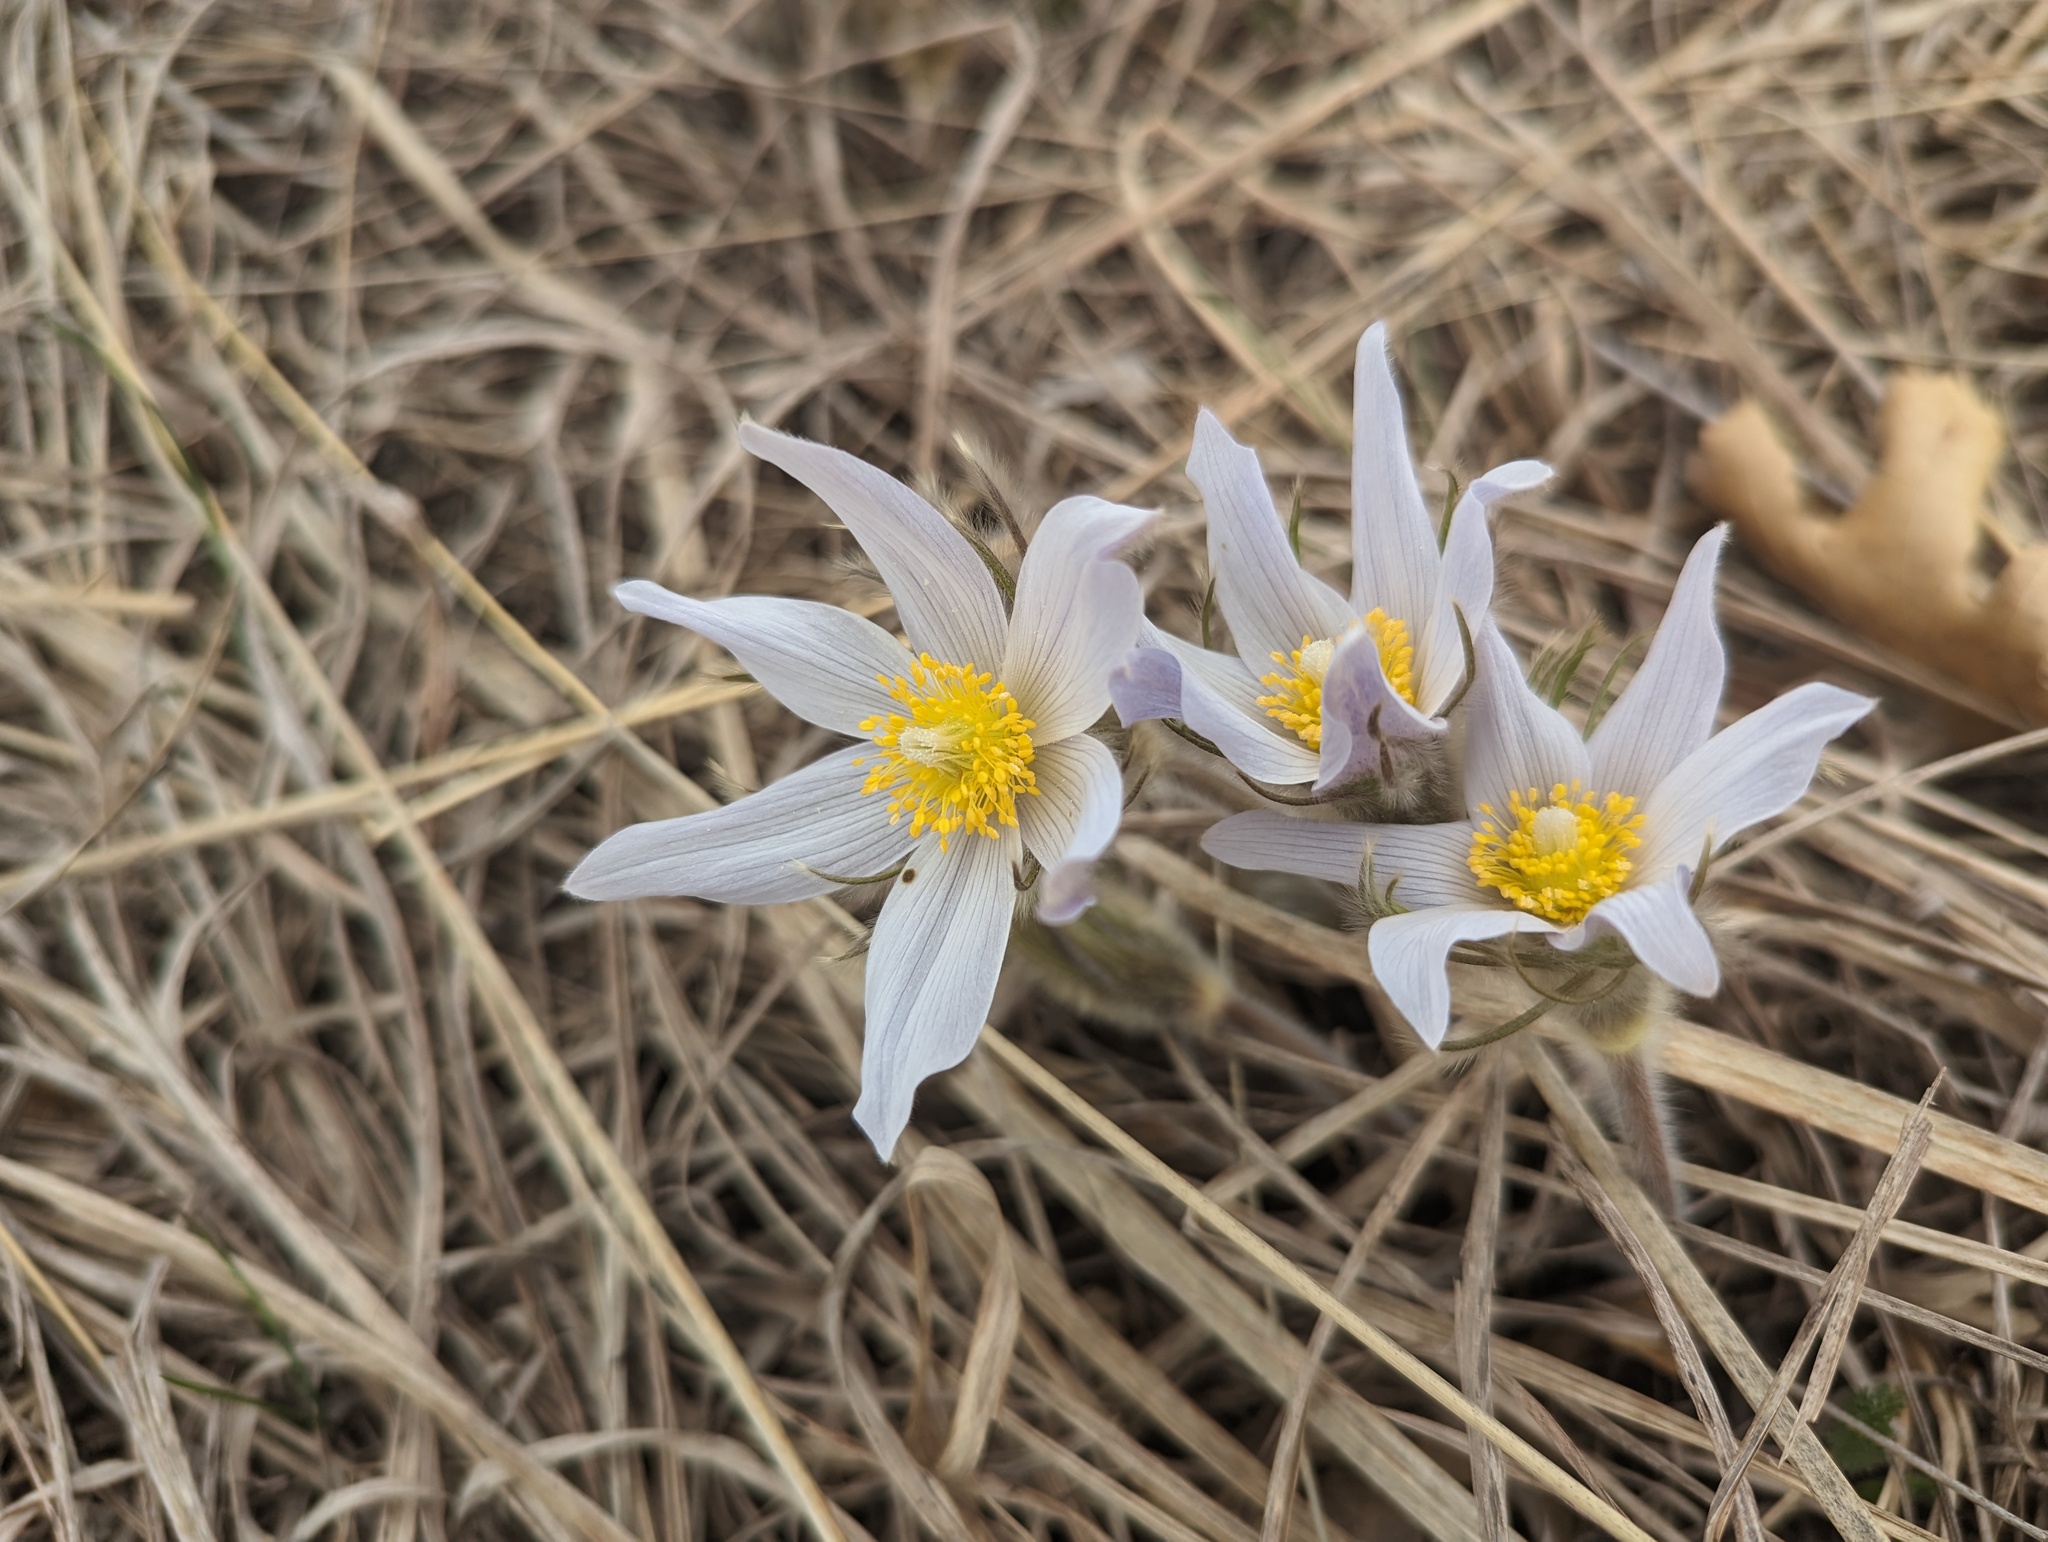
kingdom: Plantae
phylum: Tracheophyta
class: Magnoliopsida
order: Ranunculales
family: Ranunculaceae
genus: Pulsatilla
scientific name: Pulsatilla nuttalliana
